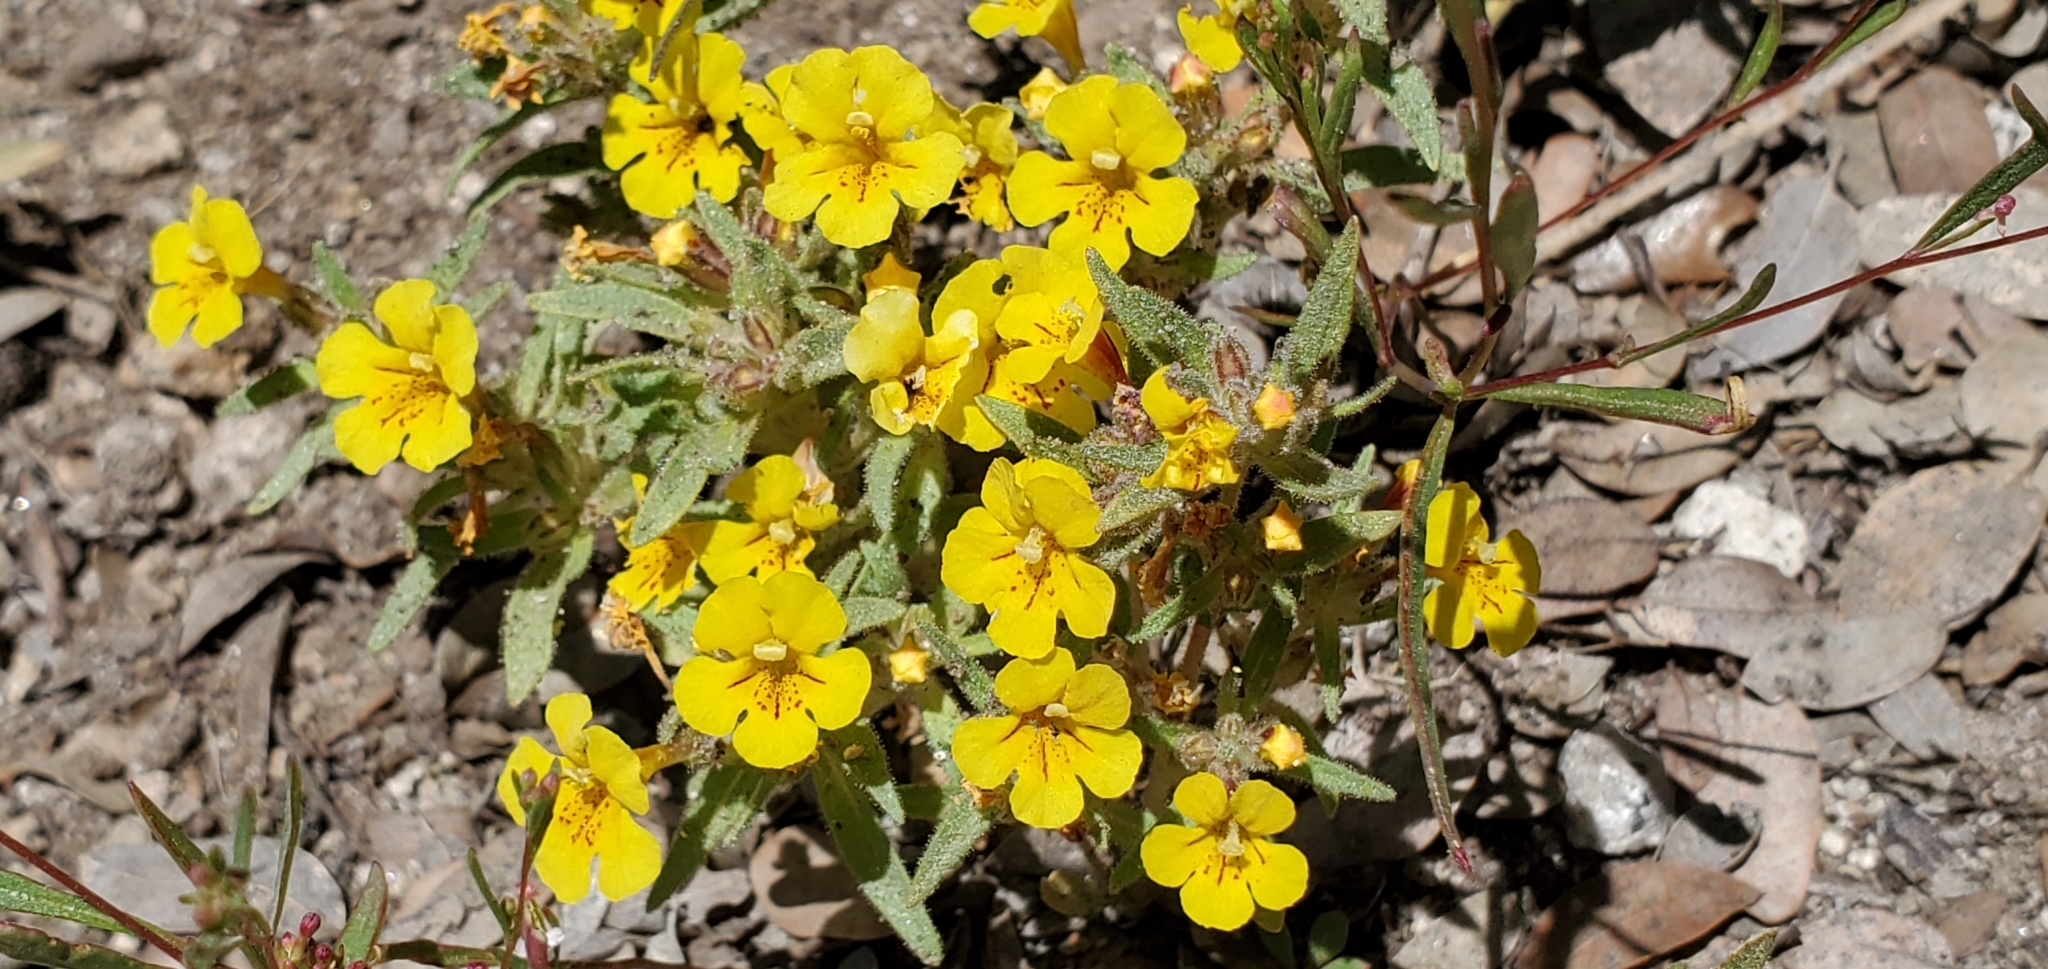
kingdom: Plantae
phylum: Tracheophyta
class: Magnoliopsida
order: Lamiales
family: Phrymaceae
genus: Diplacus
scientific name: Diplacus mephiticus
